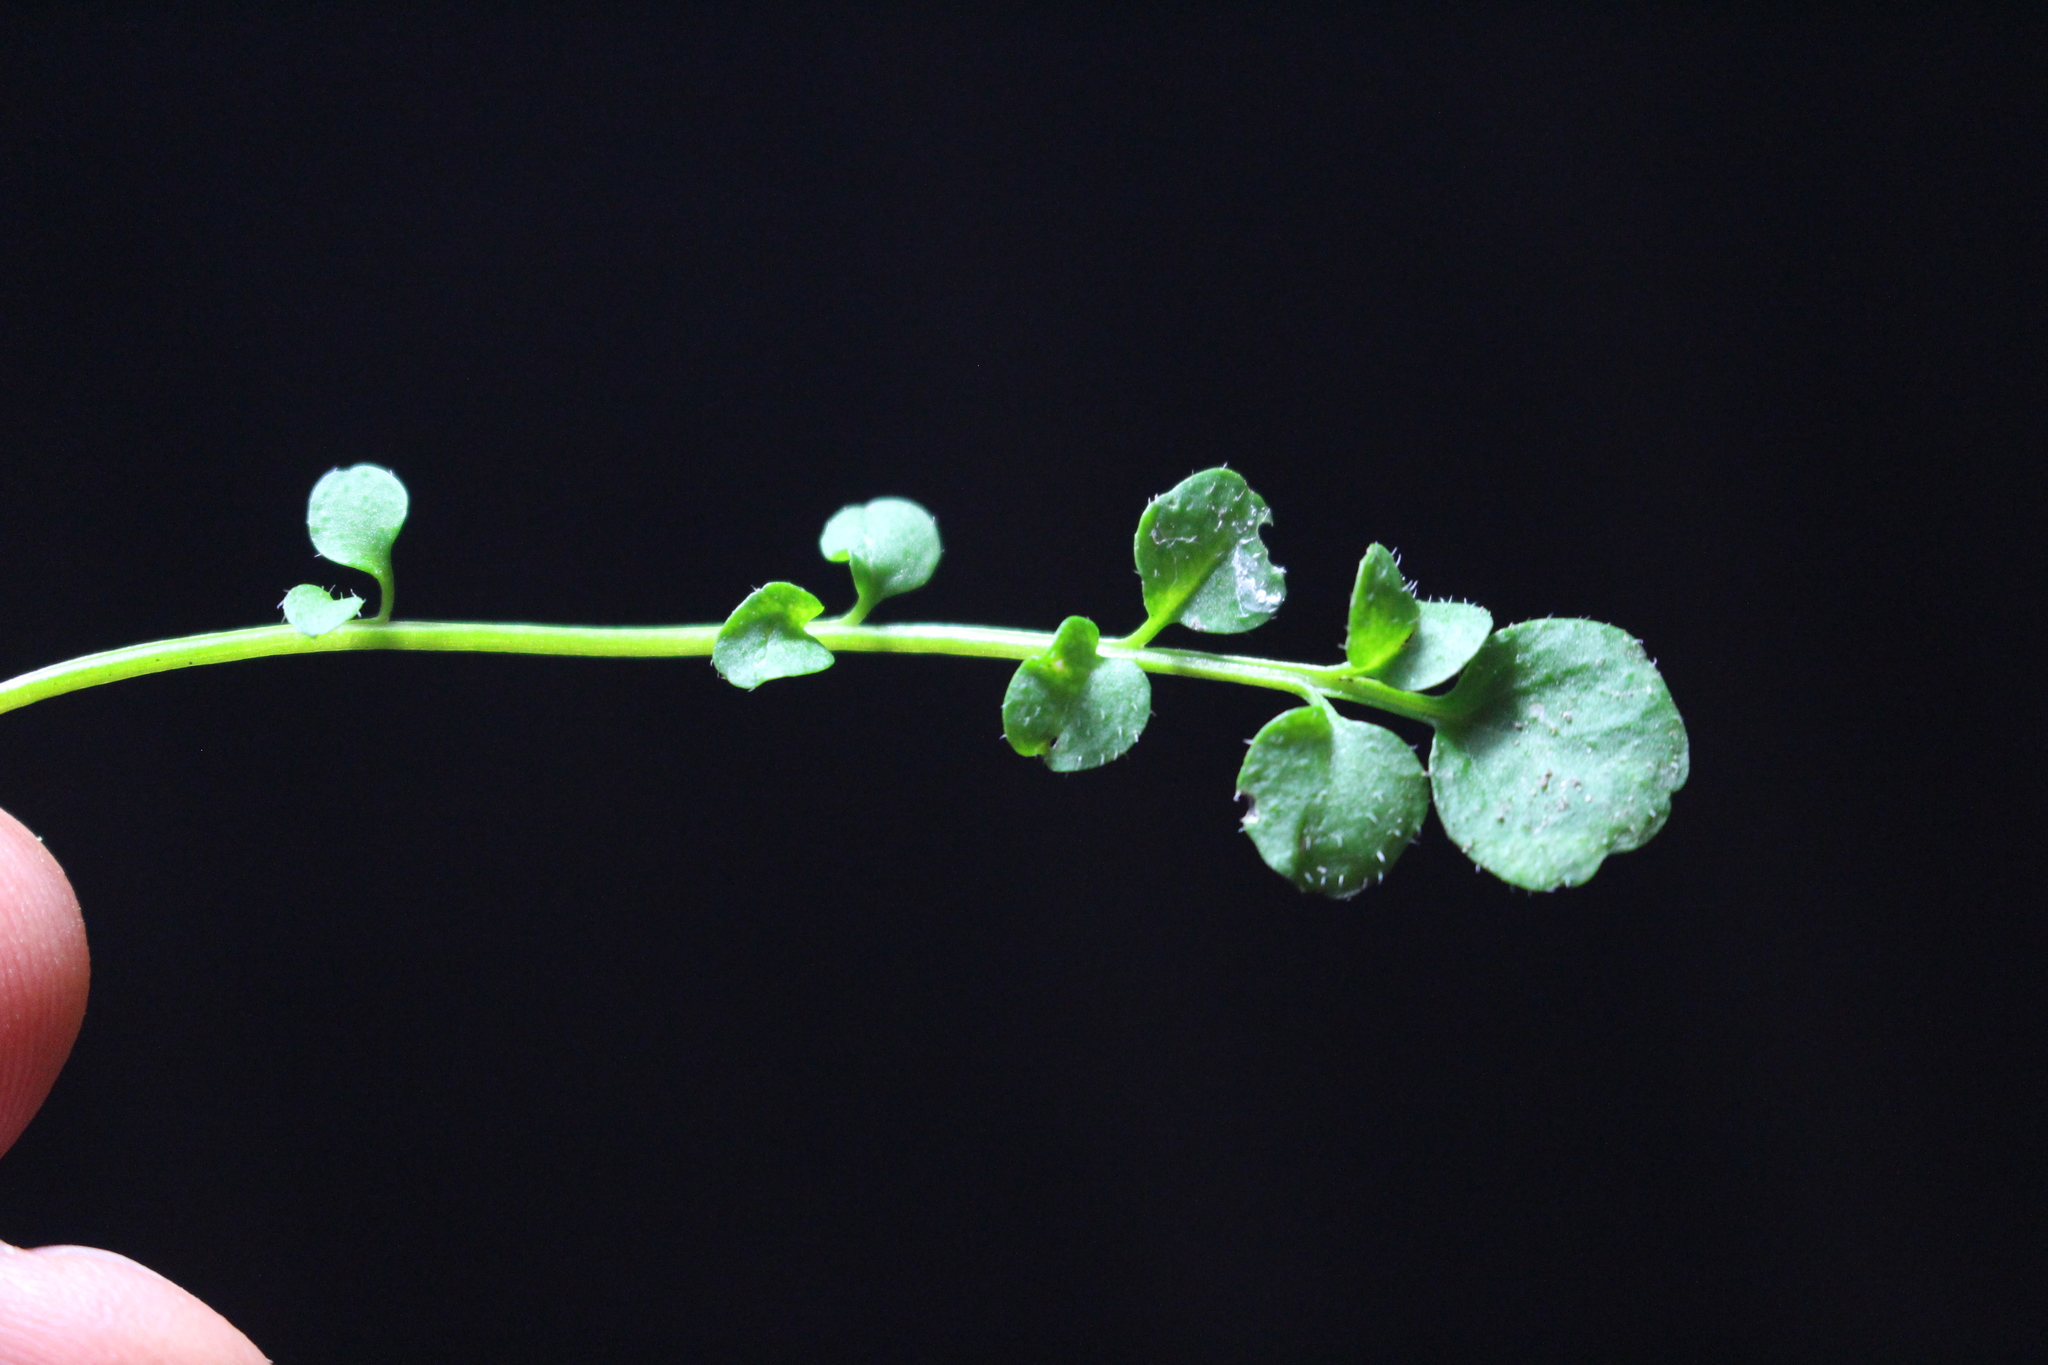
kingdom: Plantae
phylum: Tracheophyta
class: Magnoliopsida
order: Brassicales
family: Brassicaceae
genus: Cardamine
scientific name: Cardamine hirsuta
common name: Hairy bittercress
